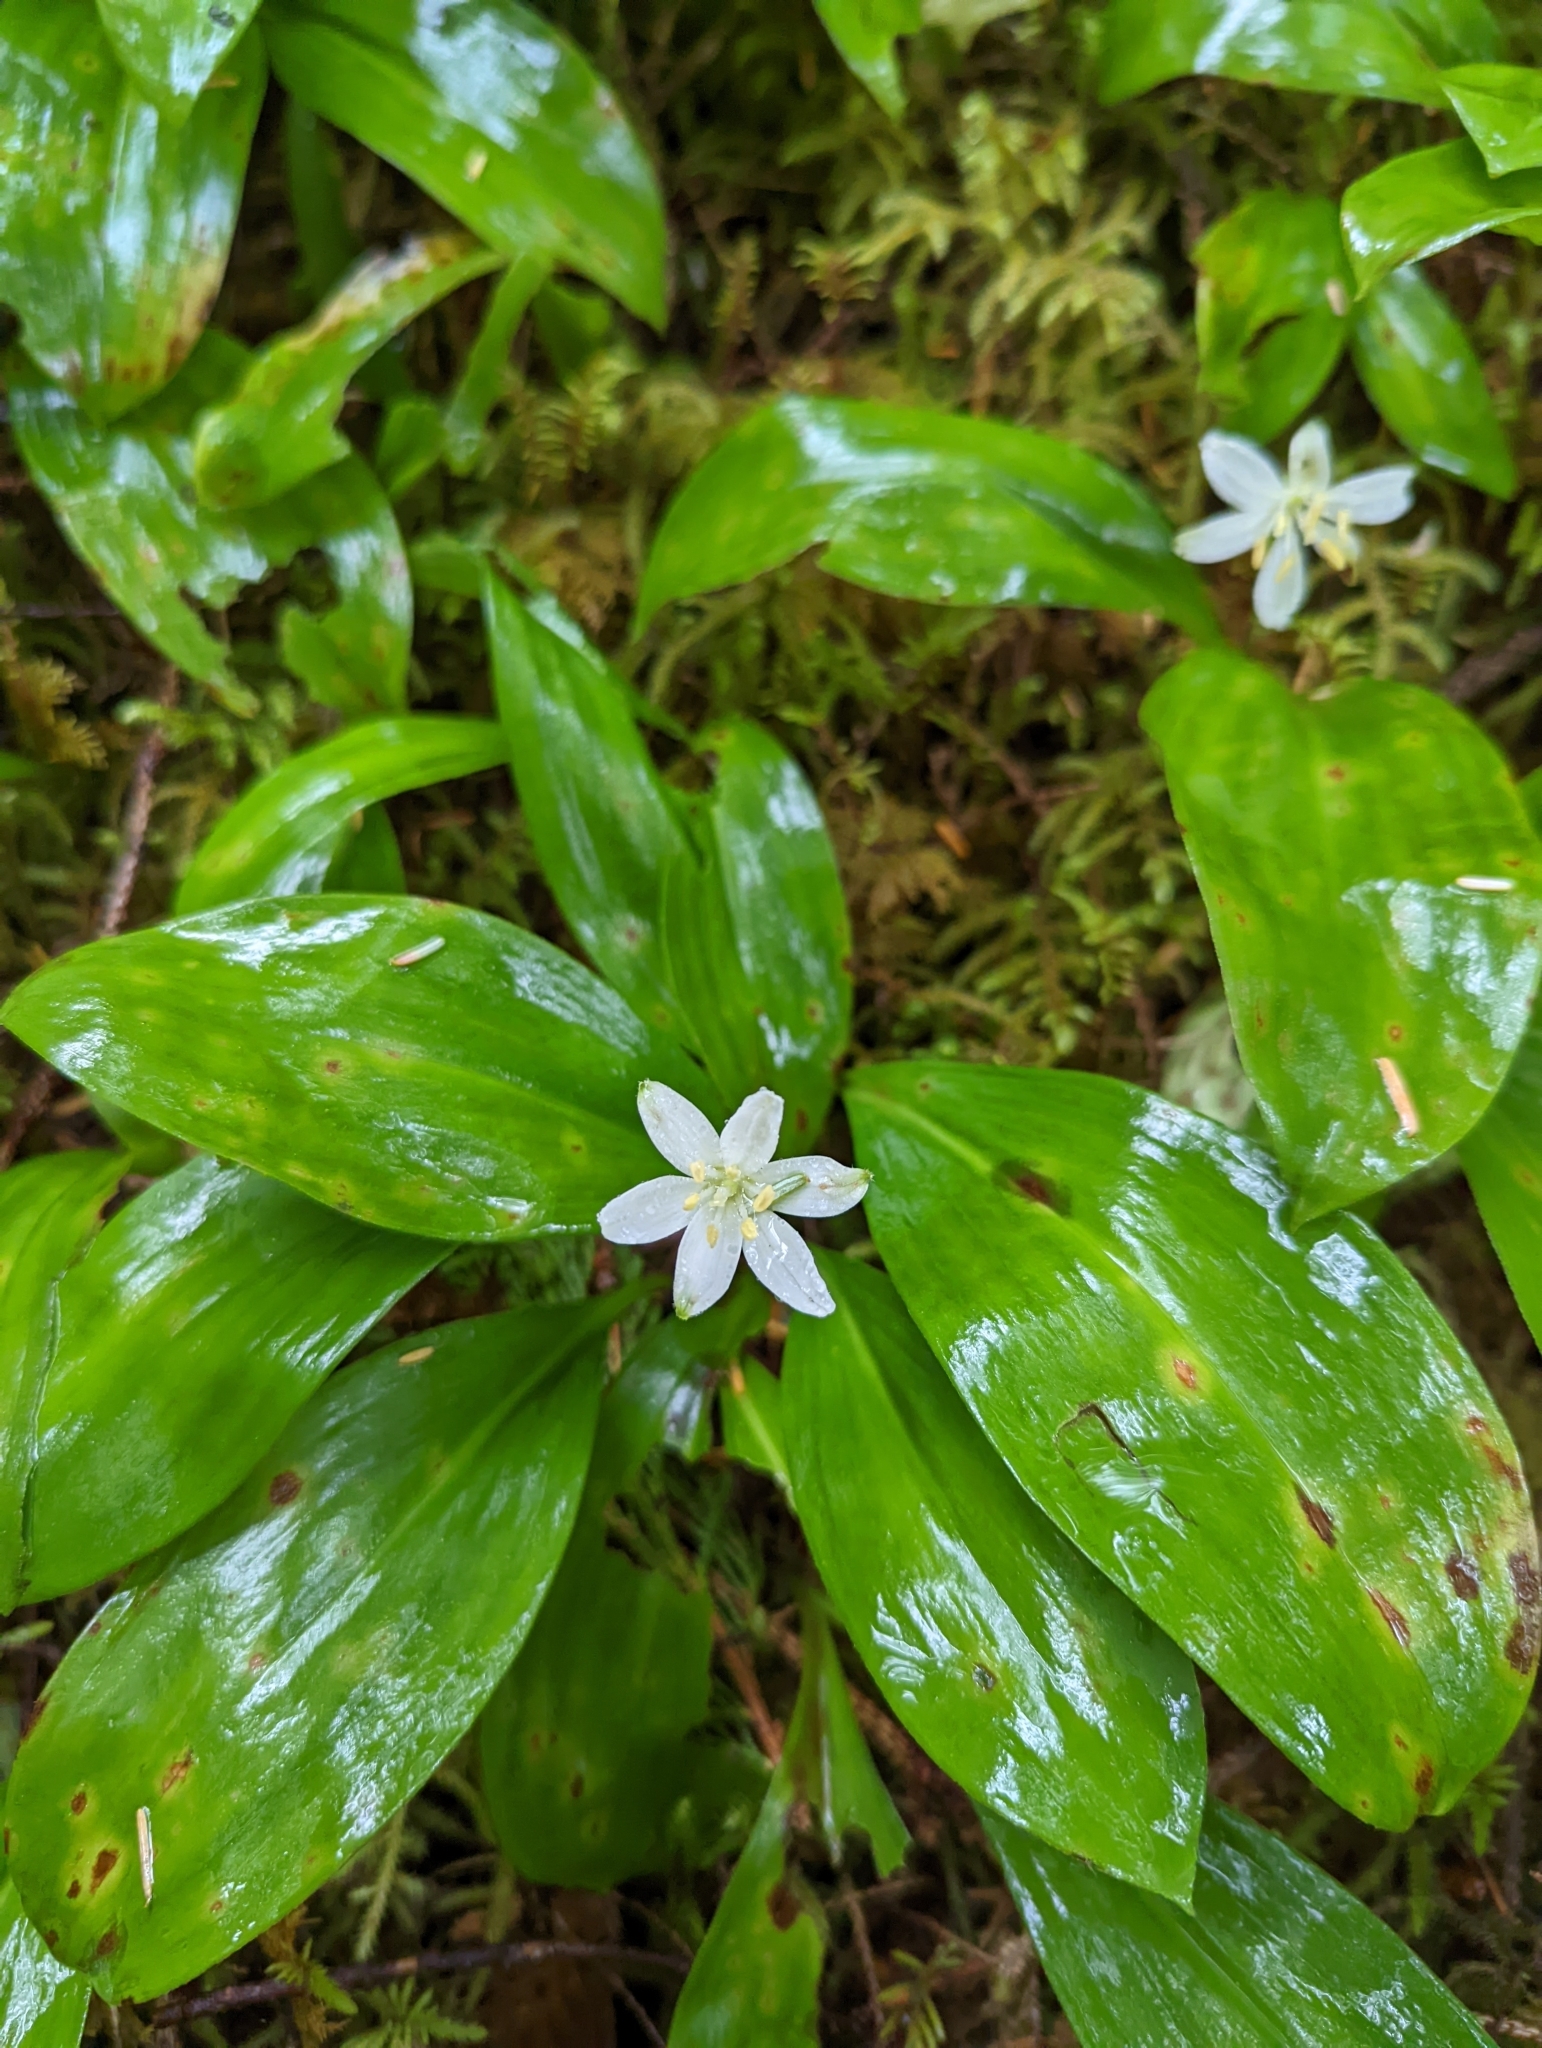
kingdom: Plantae
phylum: Tracheophyta
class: Liliopsida
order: Liliales
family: Liliaceae
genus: Clintonia
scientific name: Clintonia uniflora
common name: Queen's cup
